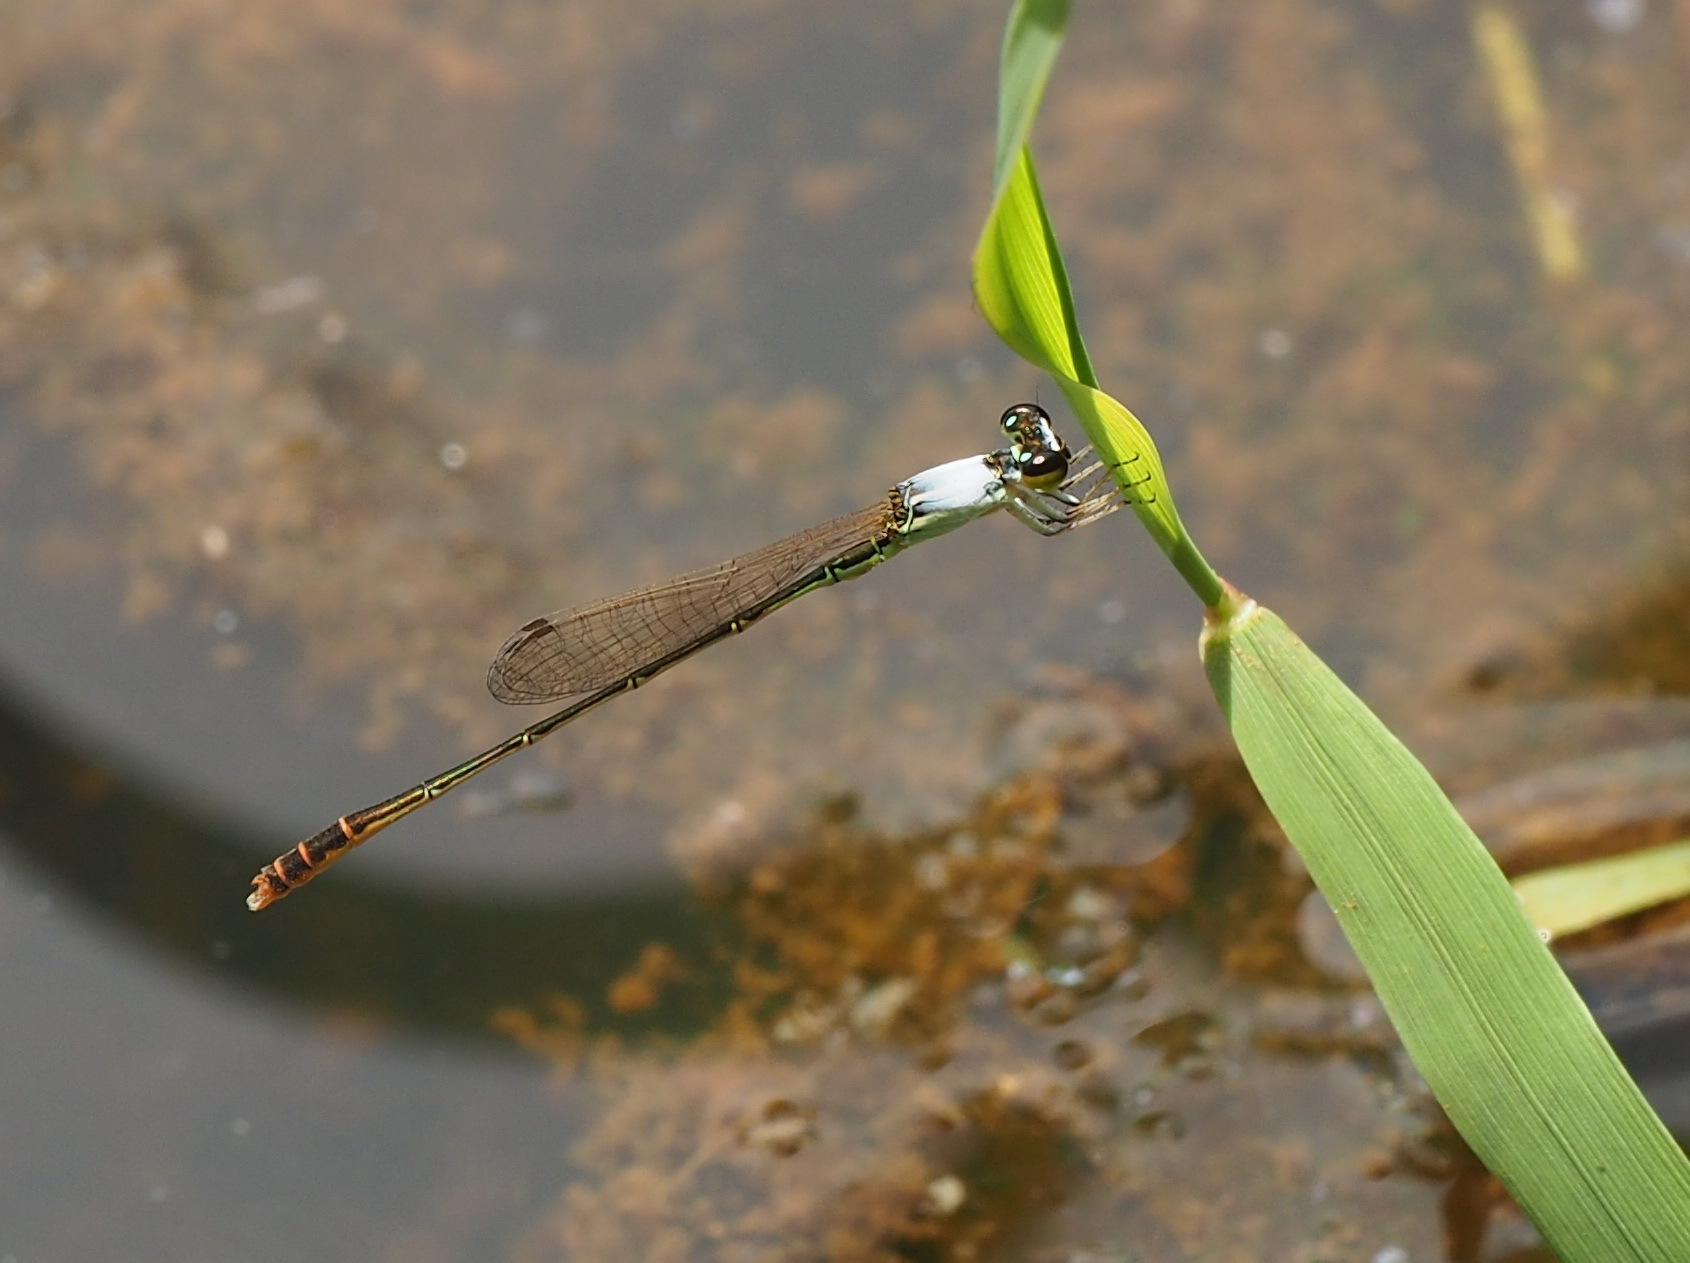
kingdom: Animalia
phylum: Arthropoda
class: Insecta
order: Odonata
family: Coenagrionidae
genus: Agriocnemis
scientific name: Agriocnemis femina
